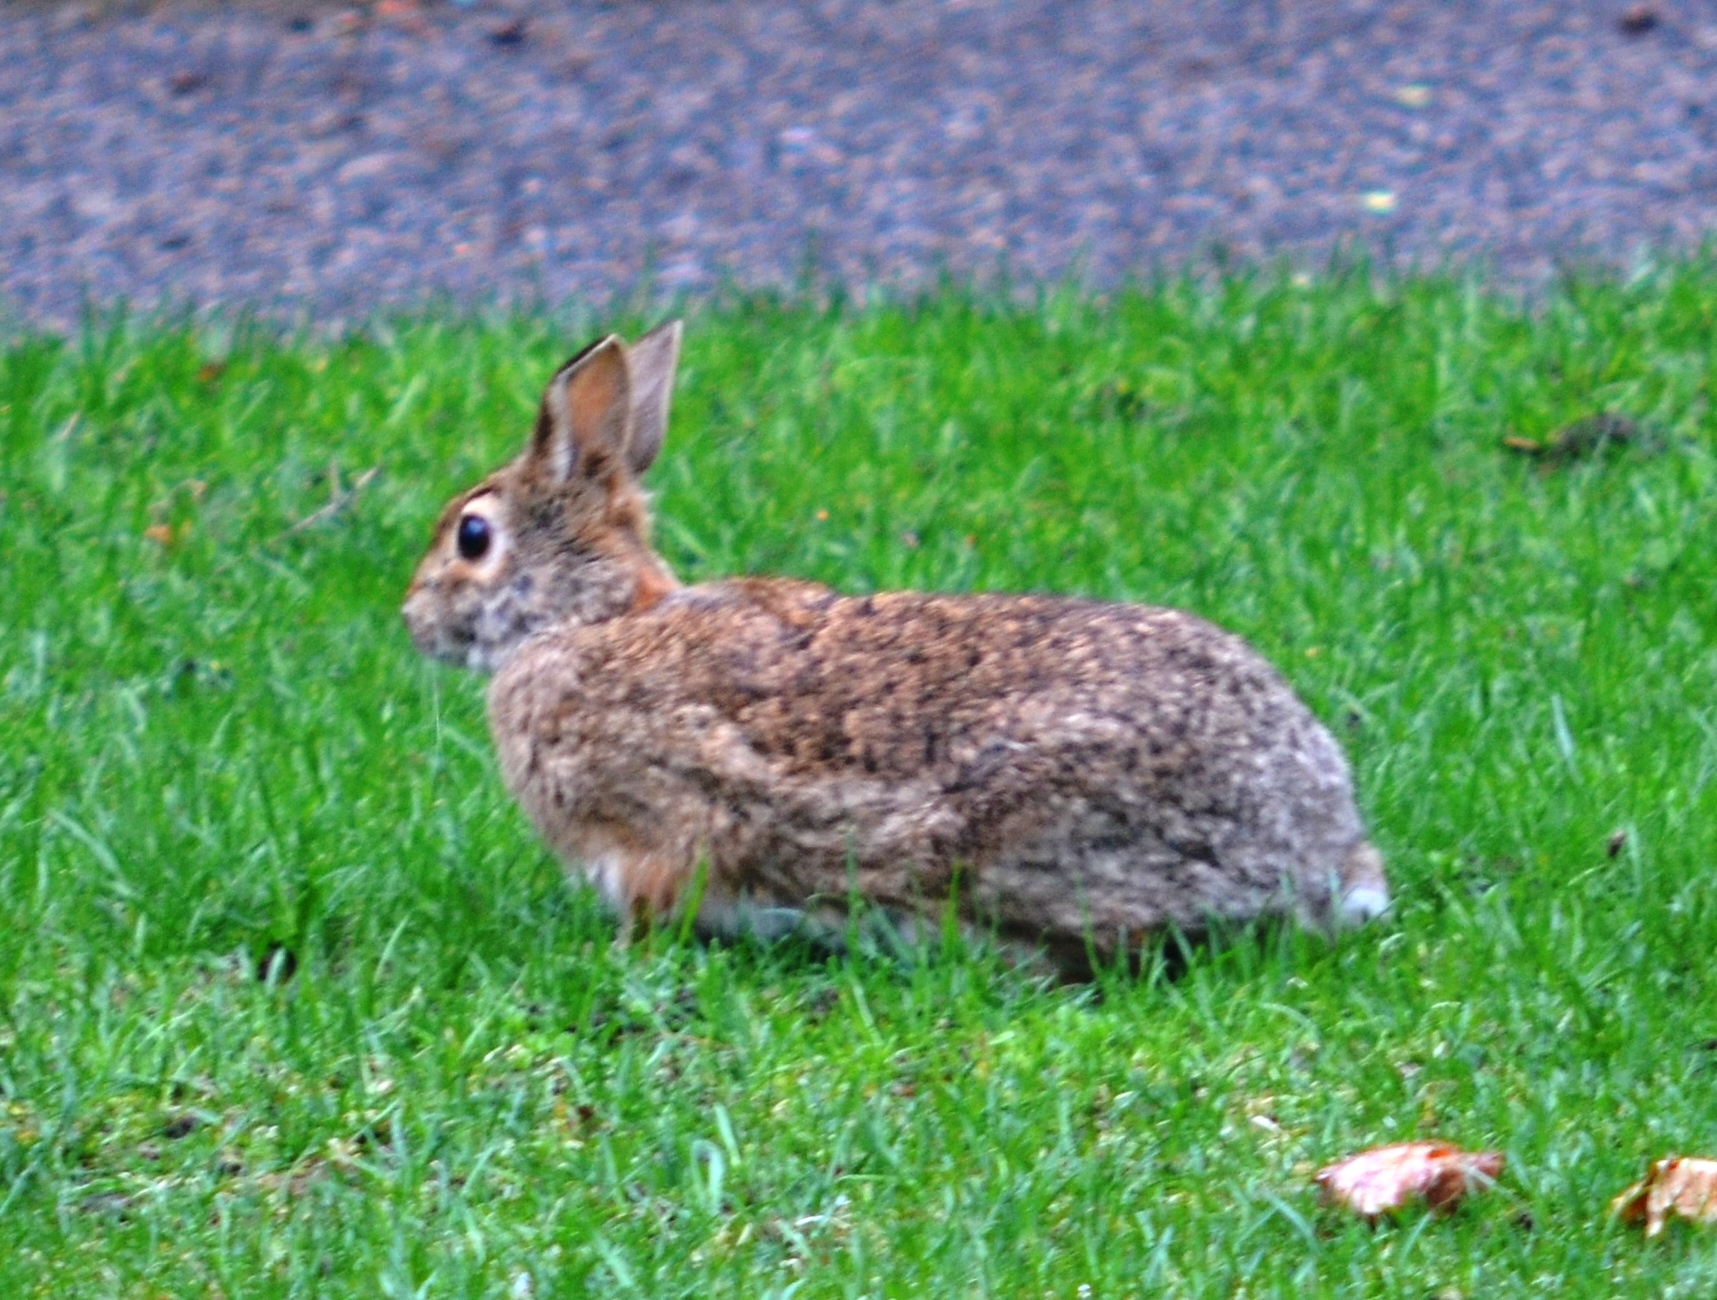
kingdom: Animalia
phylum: Chordata
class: Mammalia
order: Lagomorpha
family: Leporidae
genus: Sylvilagus
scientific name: Sylvilagus floridanus
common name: Eastern cottontail
